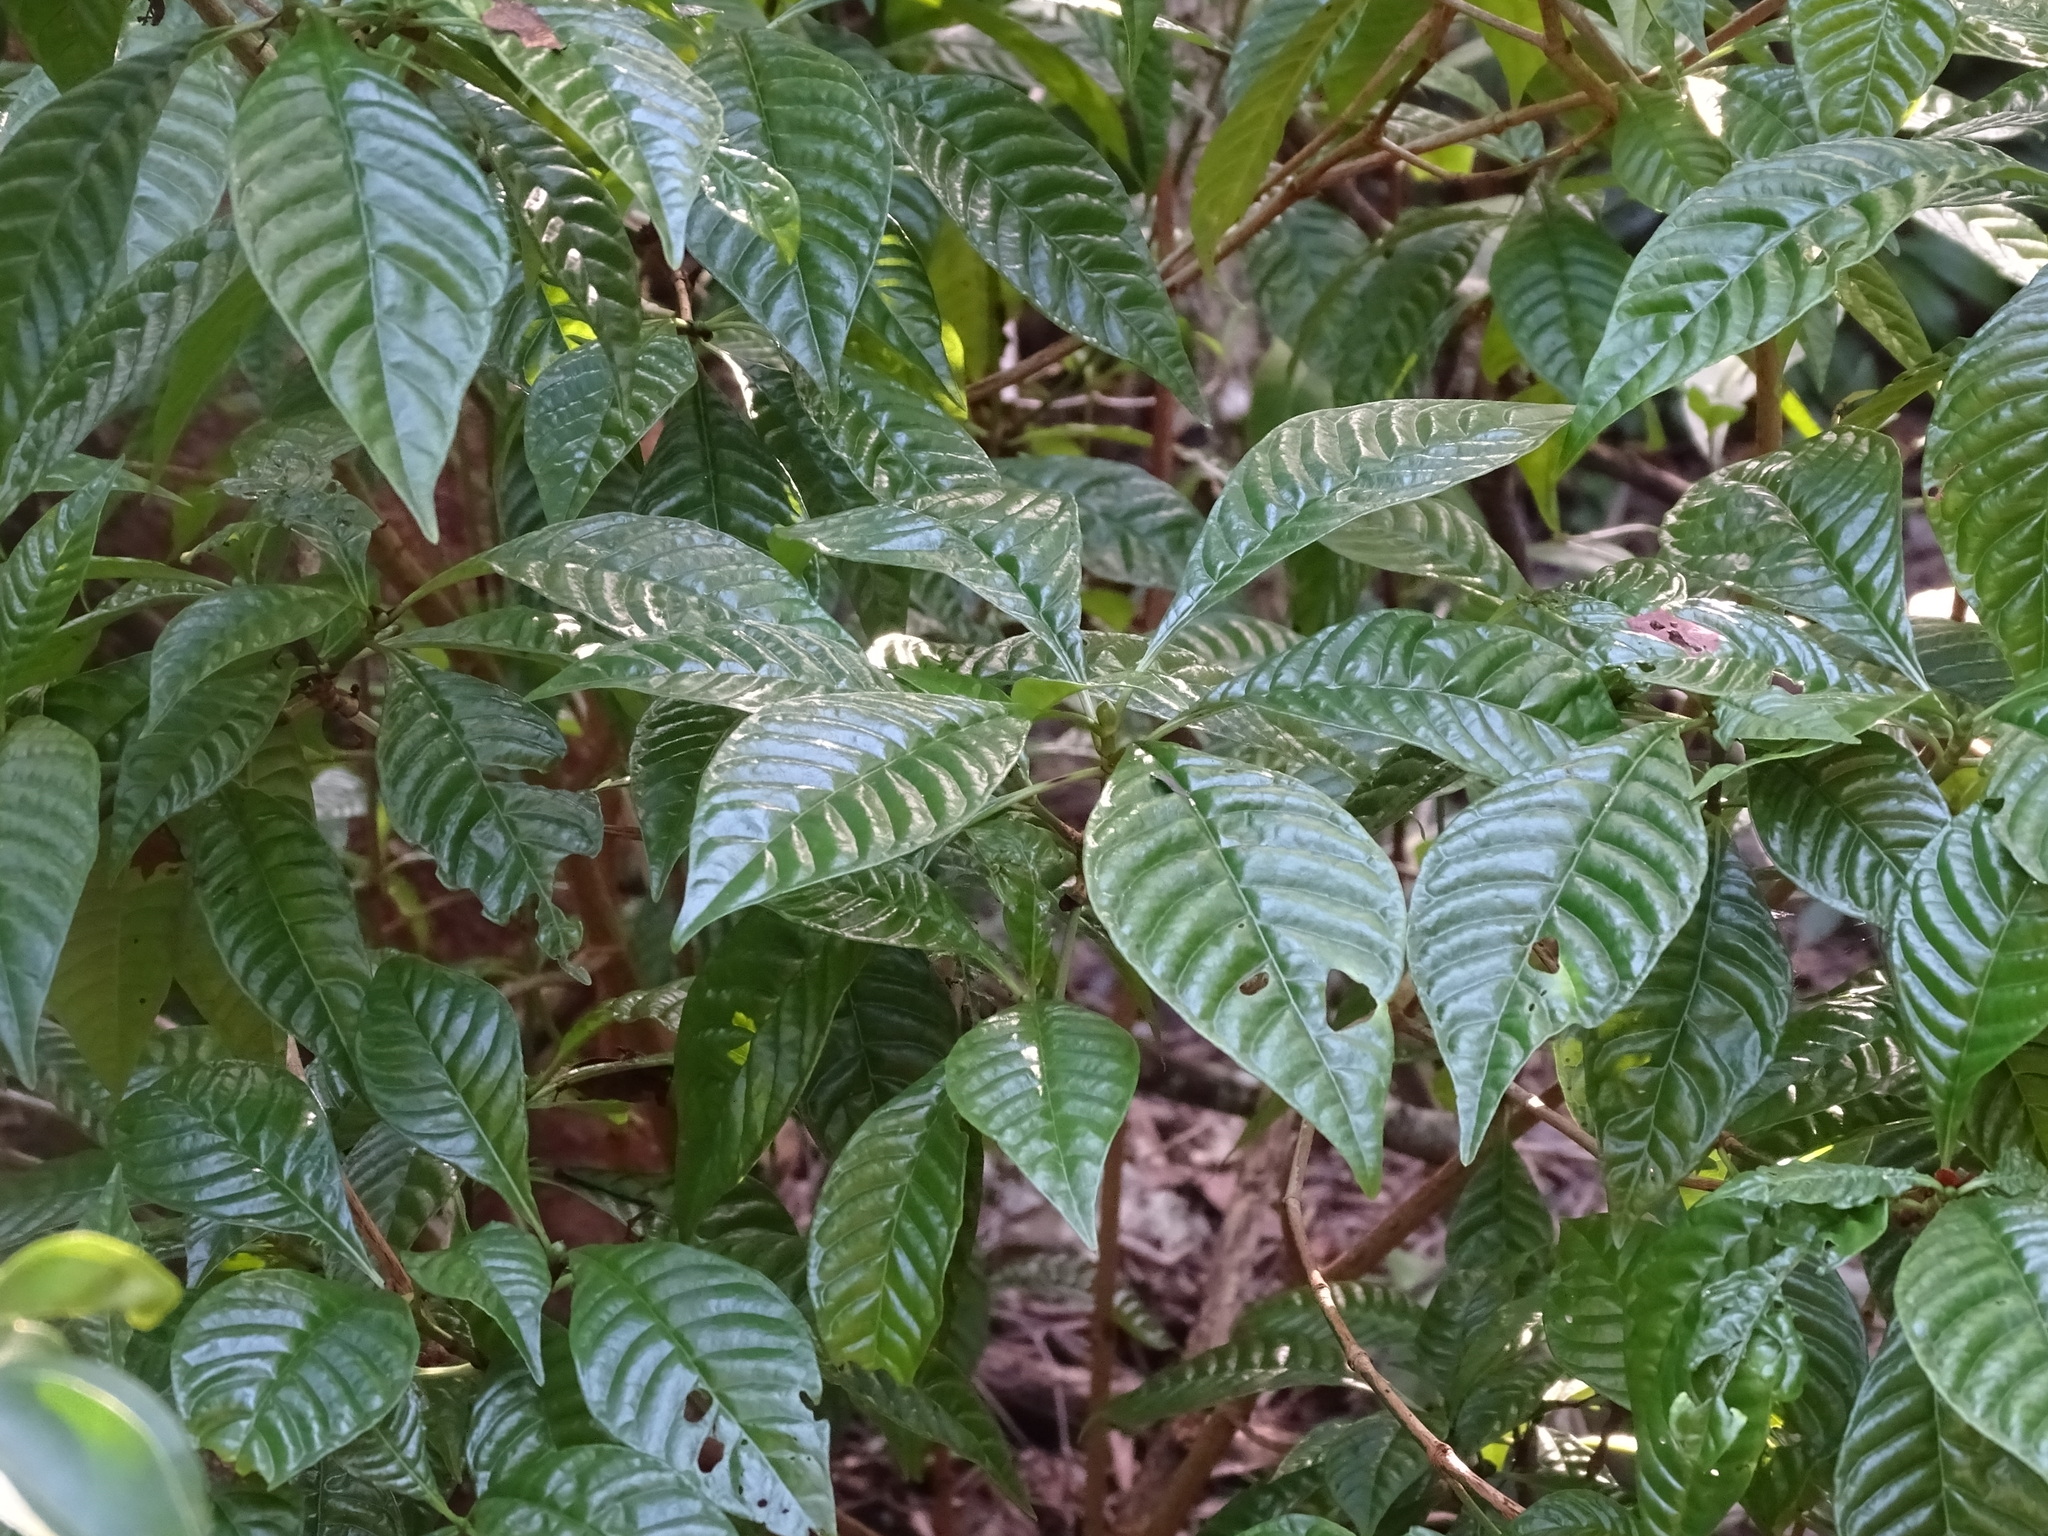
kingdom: Plantae
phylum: Tracheophyta
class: Magnoliopsida
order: Gentianales
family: Rubiaceae
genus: Psychotria
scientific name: Psychotria nervosa
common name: Bastard cankerberry
